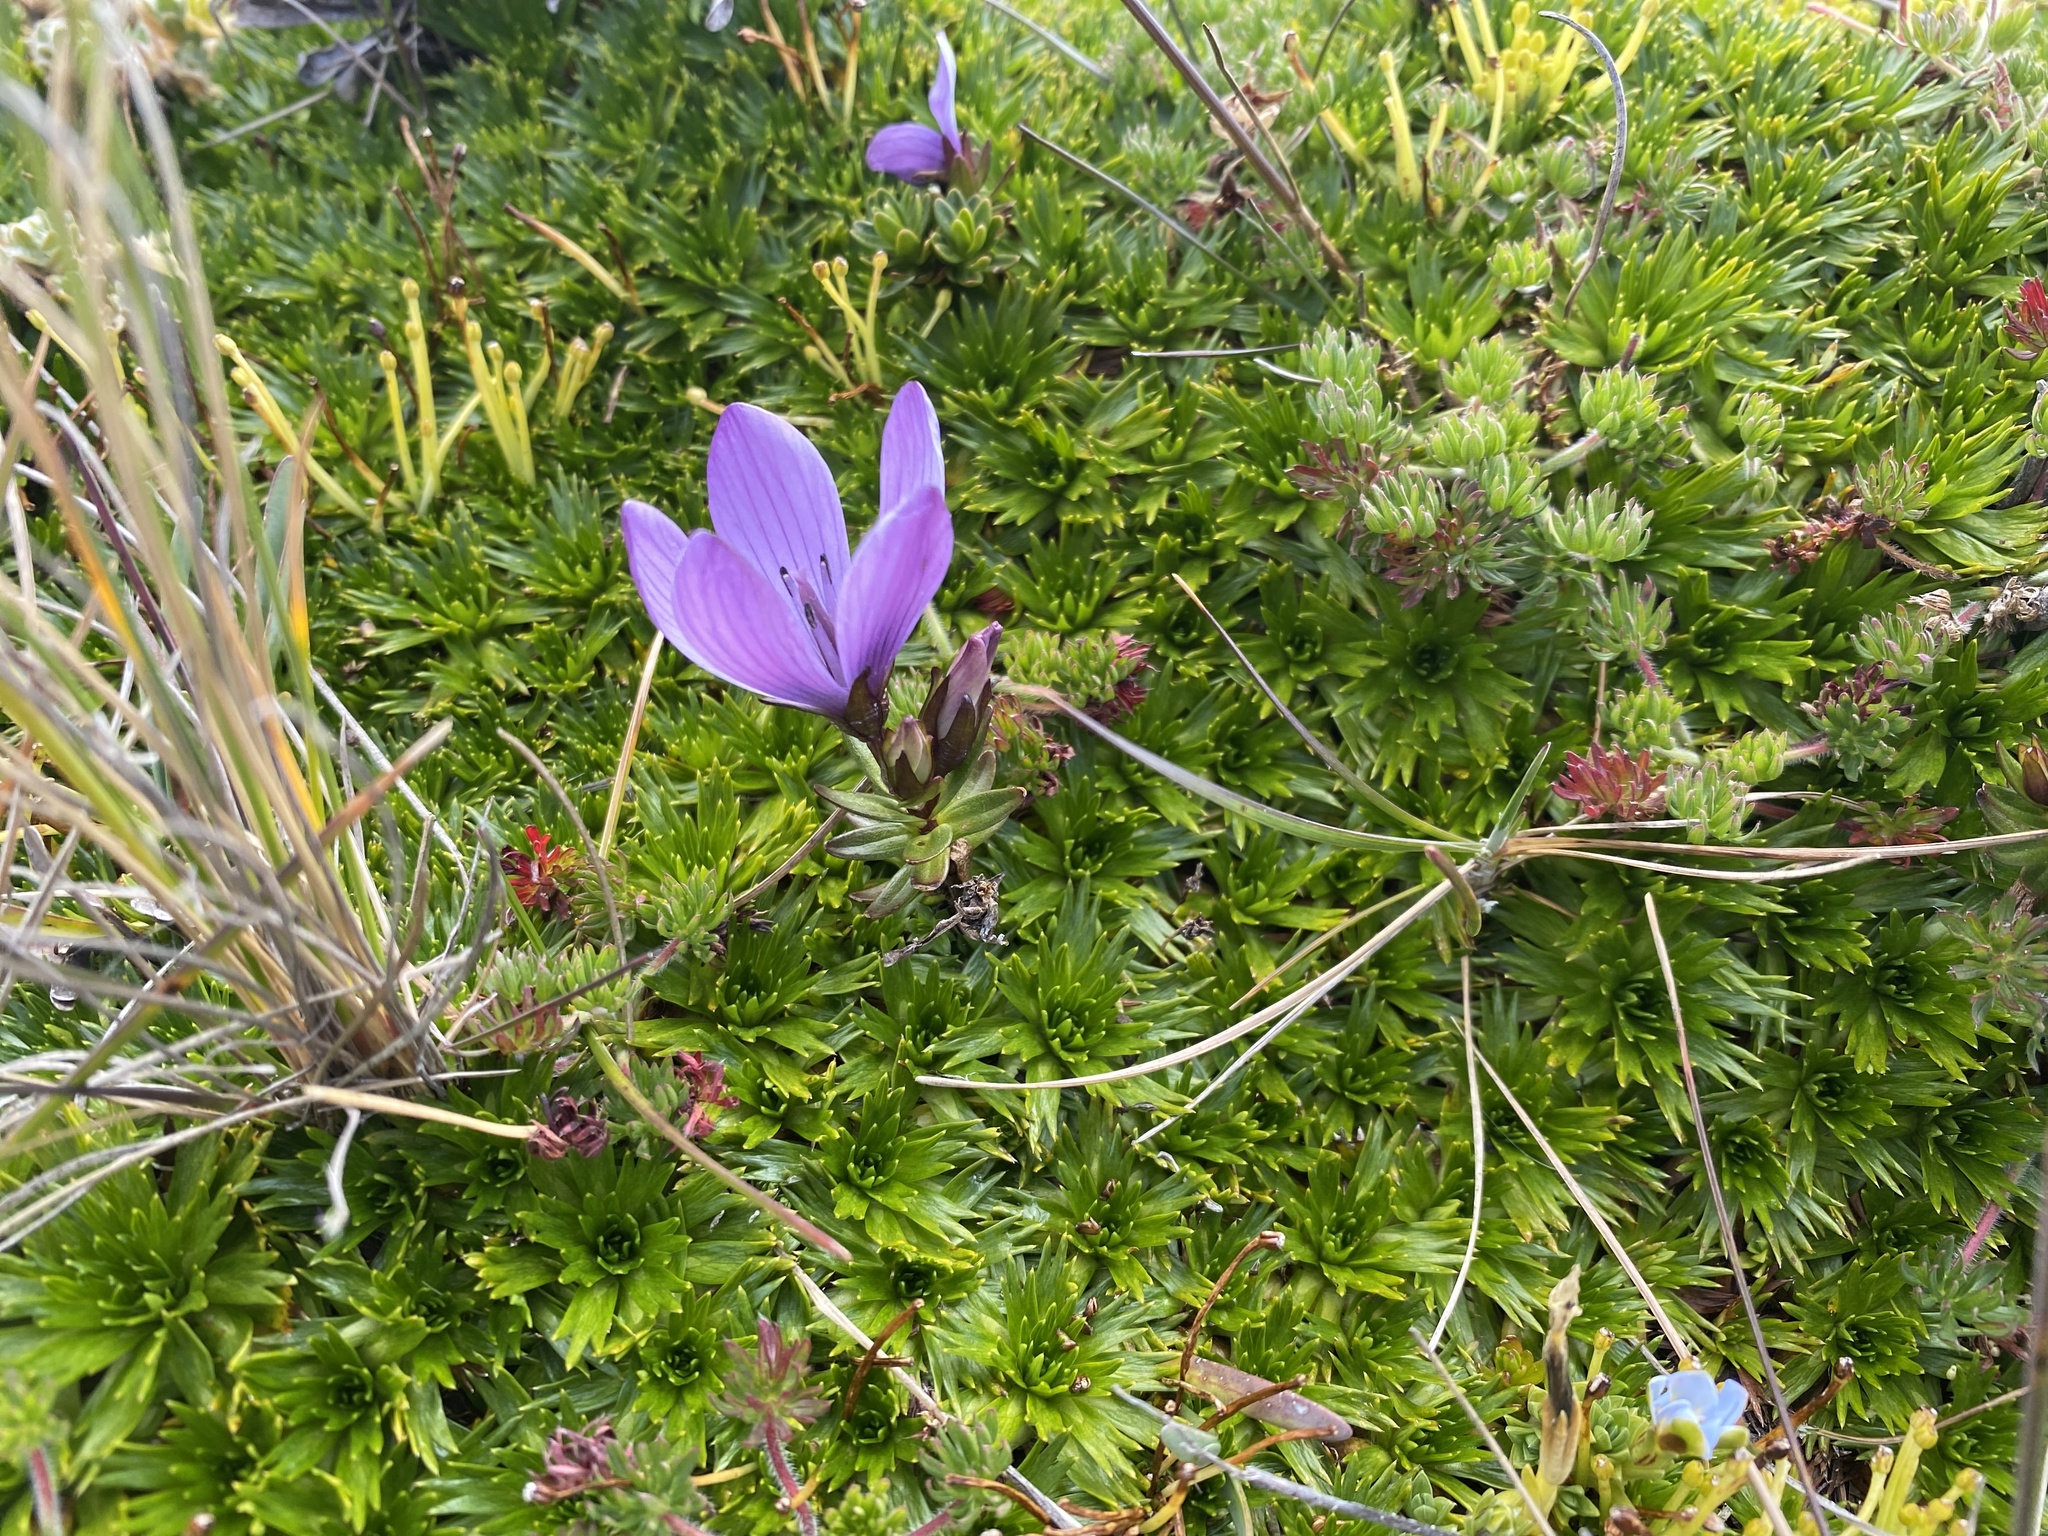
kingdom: Plantae
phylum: Tracheophyta
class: Magnoliopsida
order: Gentianales
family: Gentianaceae
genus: Gentianella
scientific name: Gentianella cerastioides
